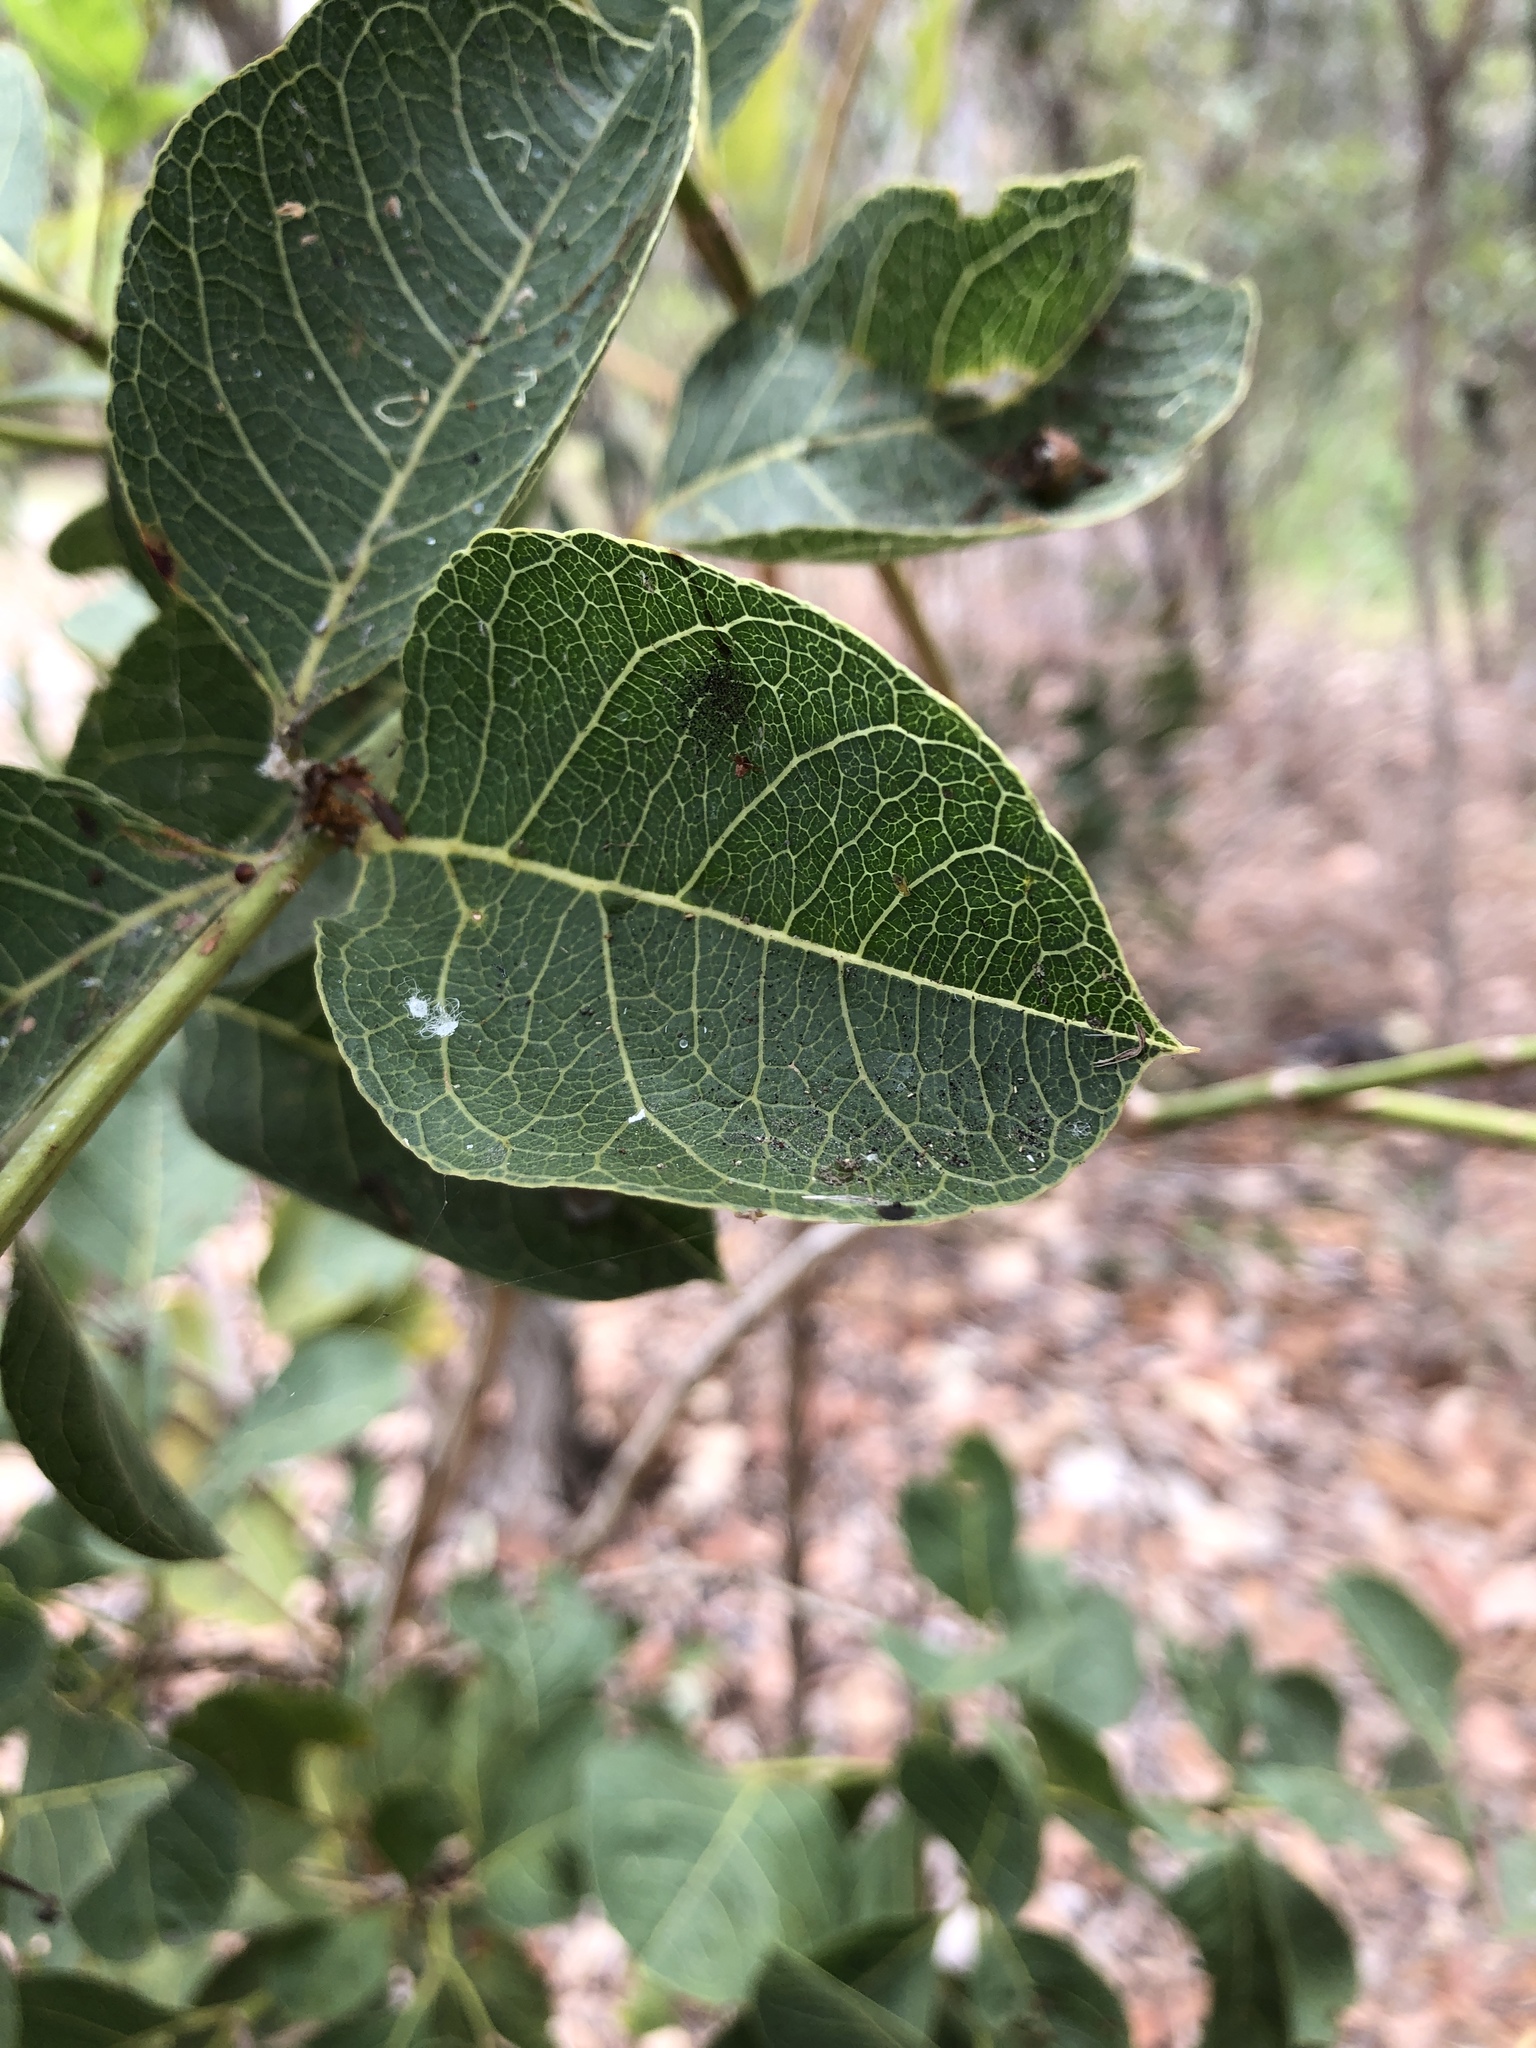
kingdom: Plantae
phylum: Tracheophyta
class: Magnoliopsida
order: Gentianales
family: Rubiaceae
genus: Coelospermum
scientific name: Coelospermum reticulatum
